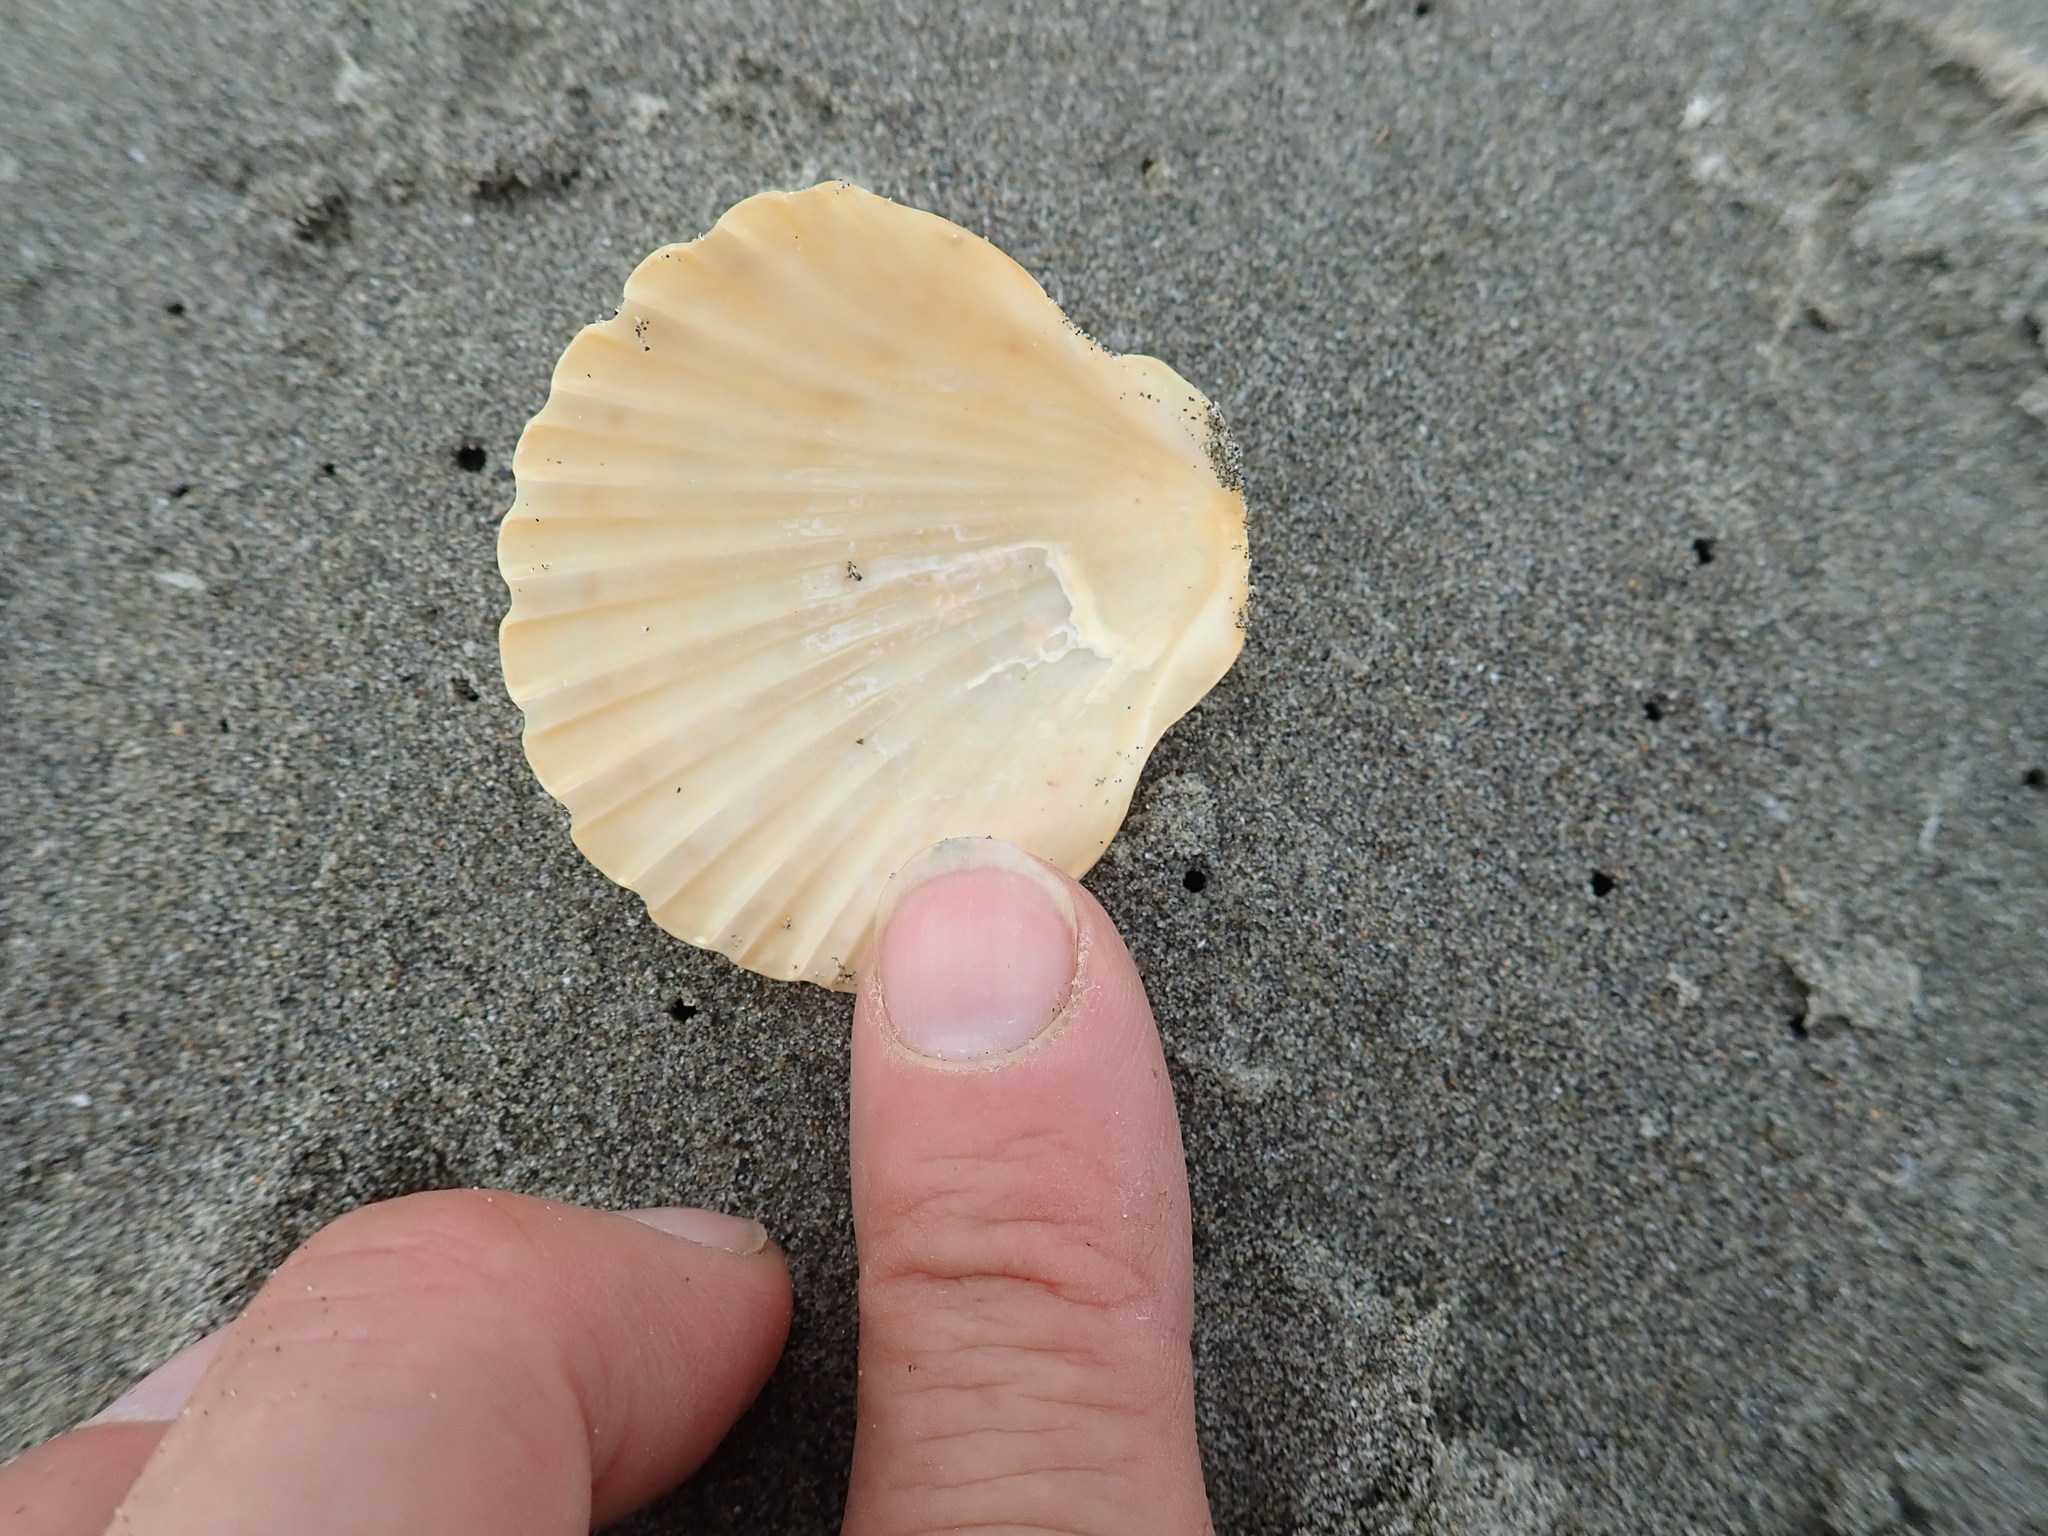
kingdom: Animalia
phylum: Mollusca
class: Bivalvia
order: Pectinida
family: Pectinidae
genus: Pecten
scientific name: Pecten novaezelandiae
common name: New zealand scallop
